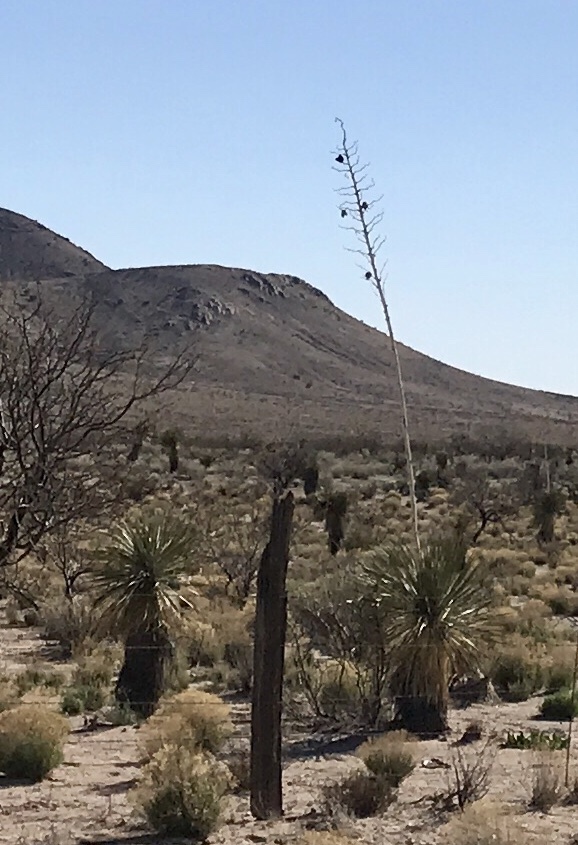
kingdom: Plantae
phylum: Tracheophyta
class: Liliopsida
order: Asparagales
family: Asparagaceae
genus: Yucca
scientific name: Yucca elata
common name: Palmella
